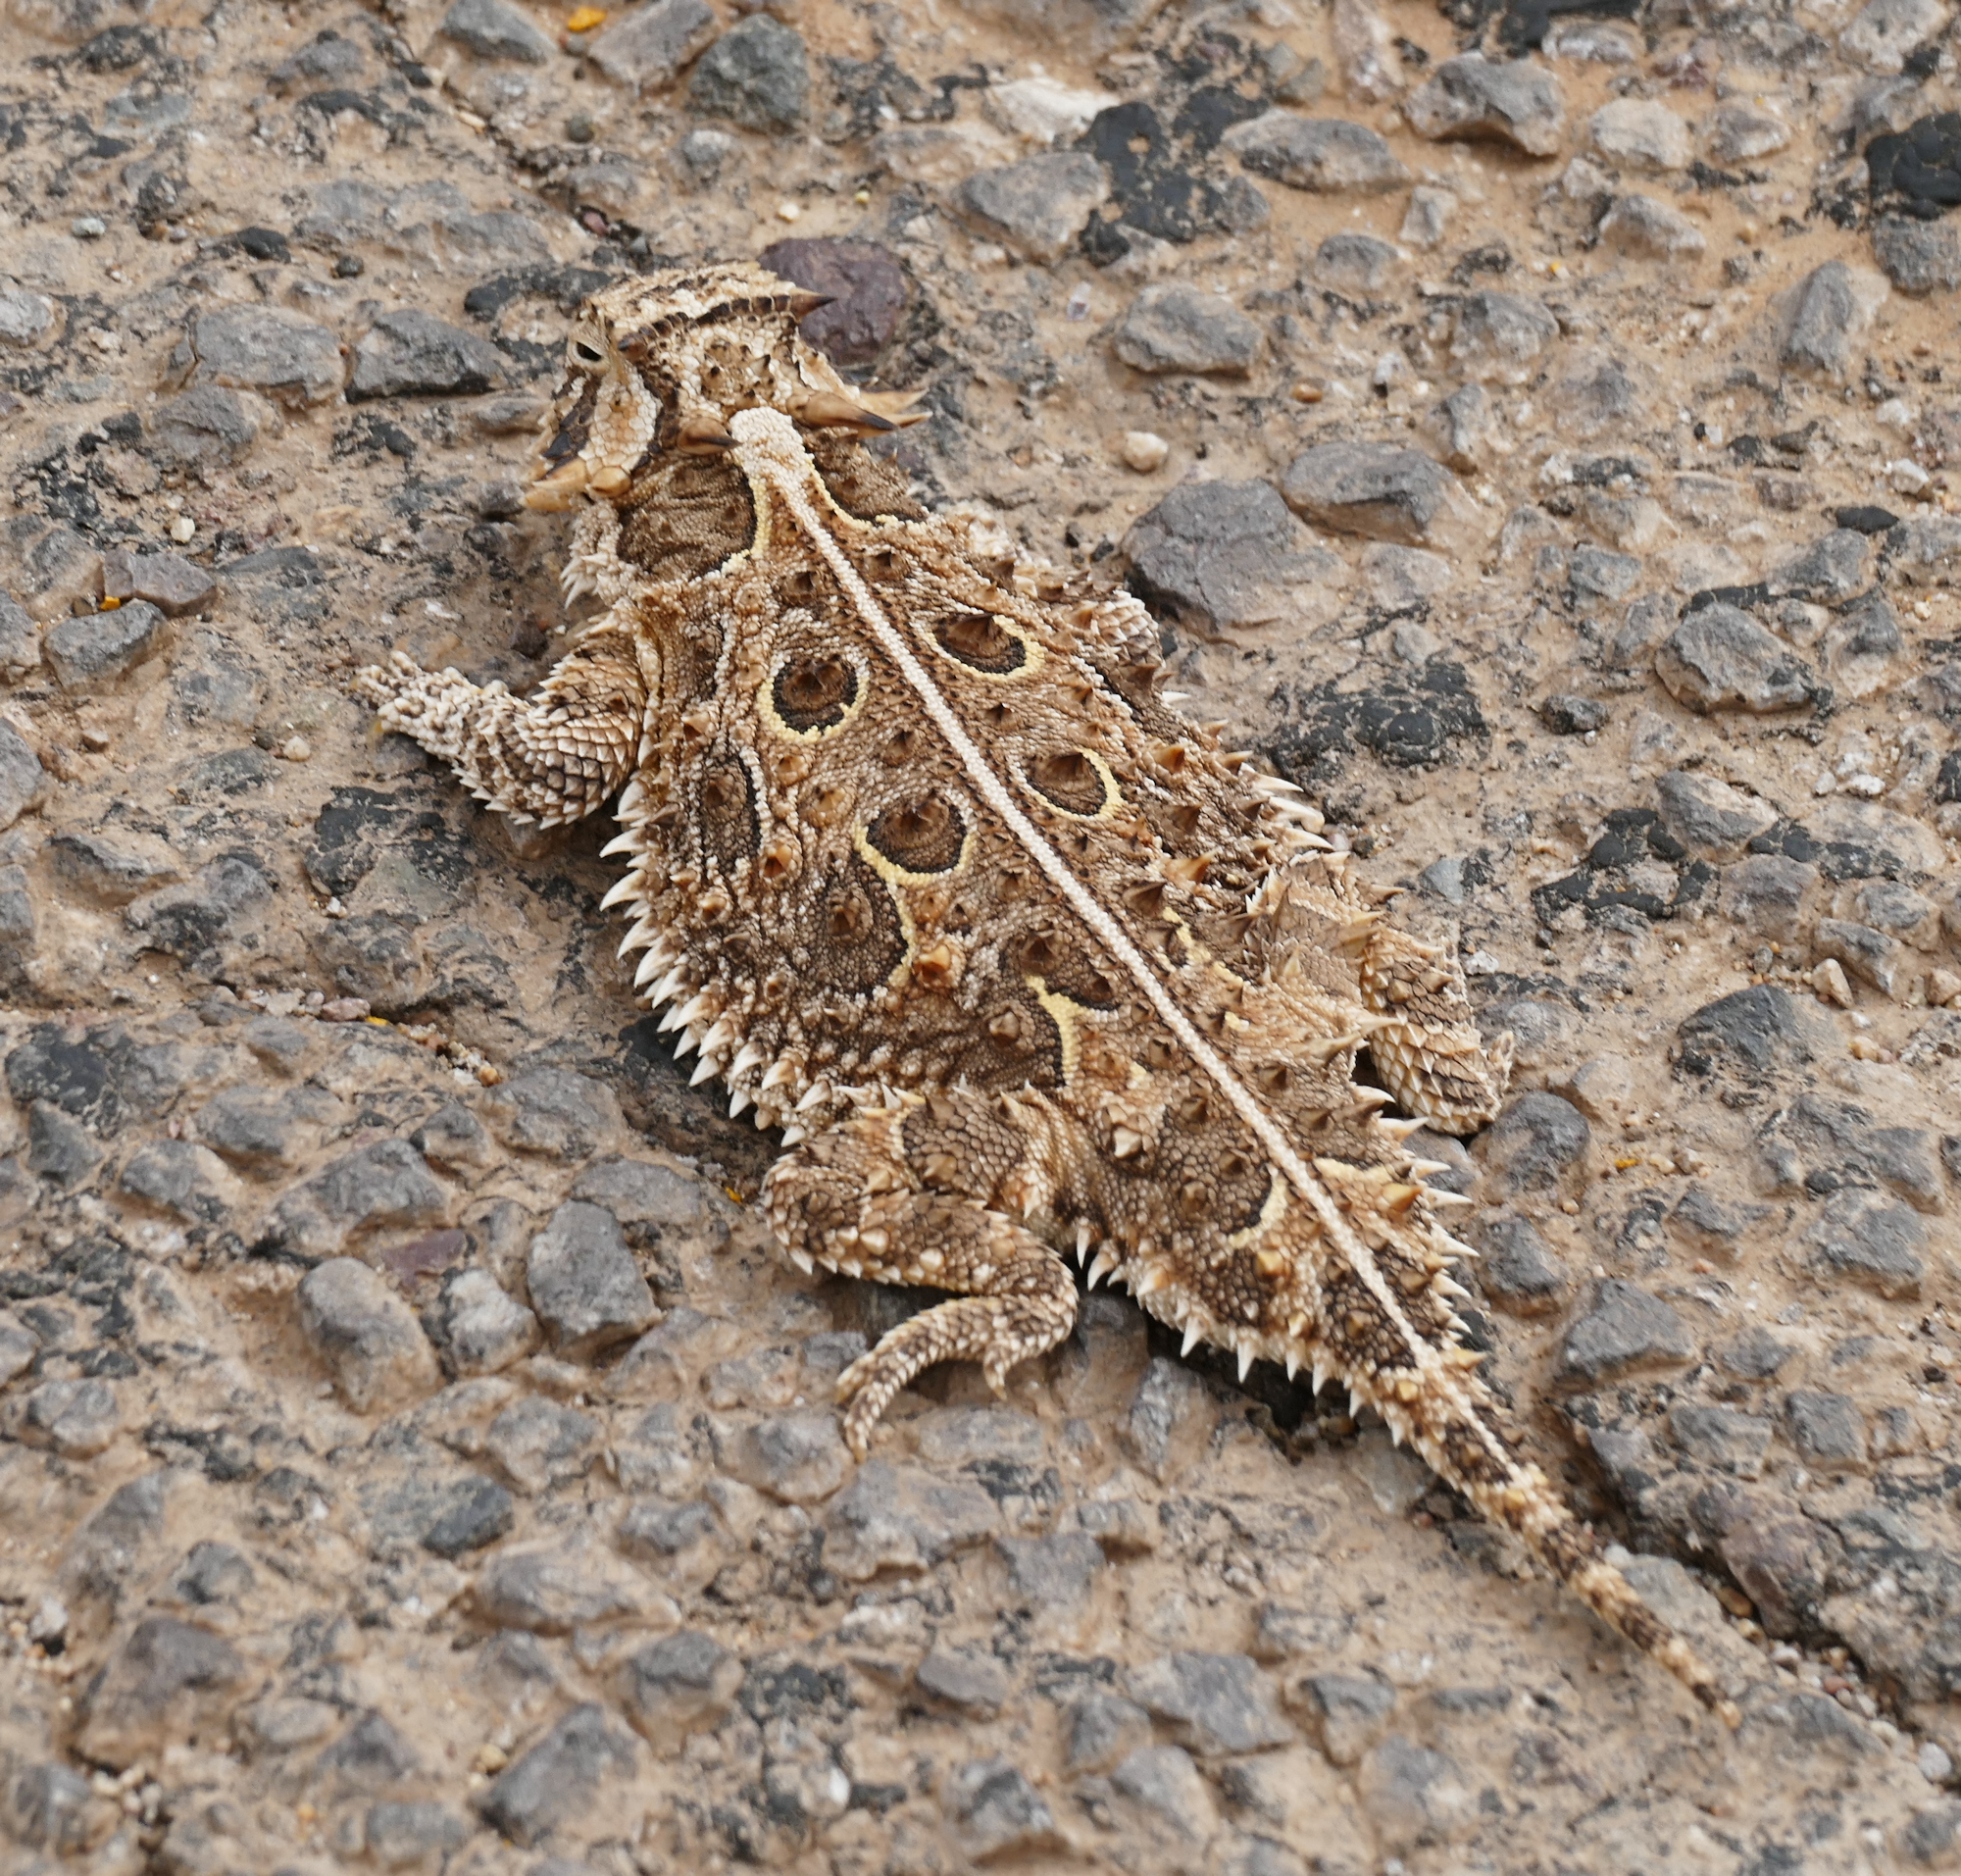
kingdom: Animalia
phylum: Chordata
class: Squamata
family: Phrynosomatidae
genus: Phrynosoma
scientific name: Phrynosoma cornutum
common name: Texas horned lizard
